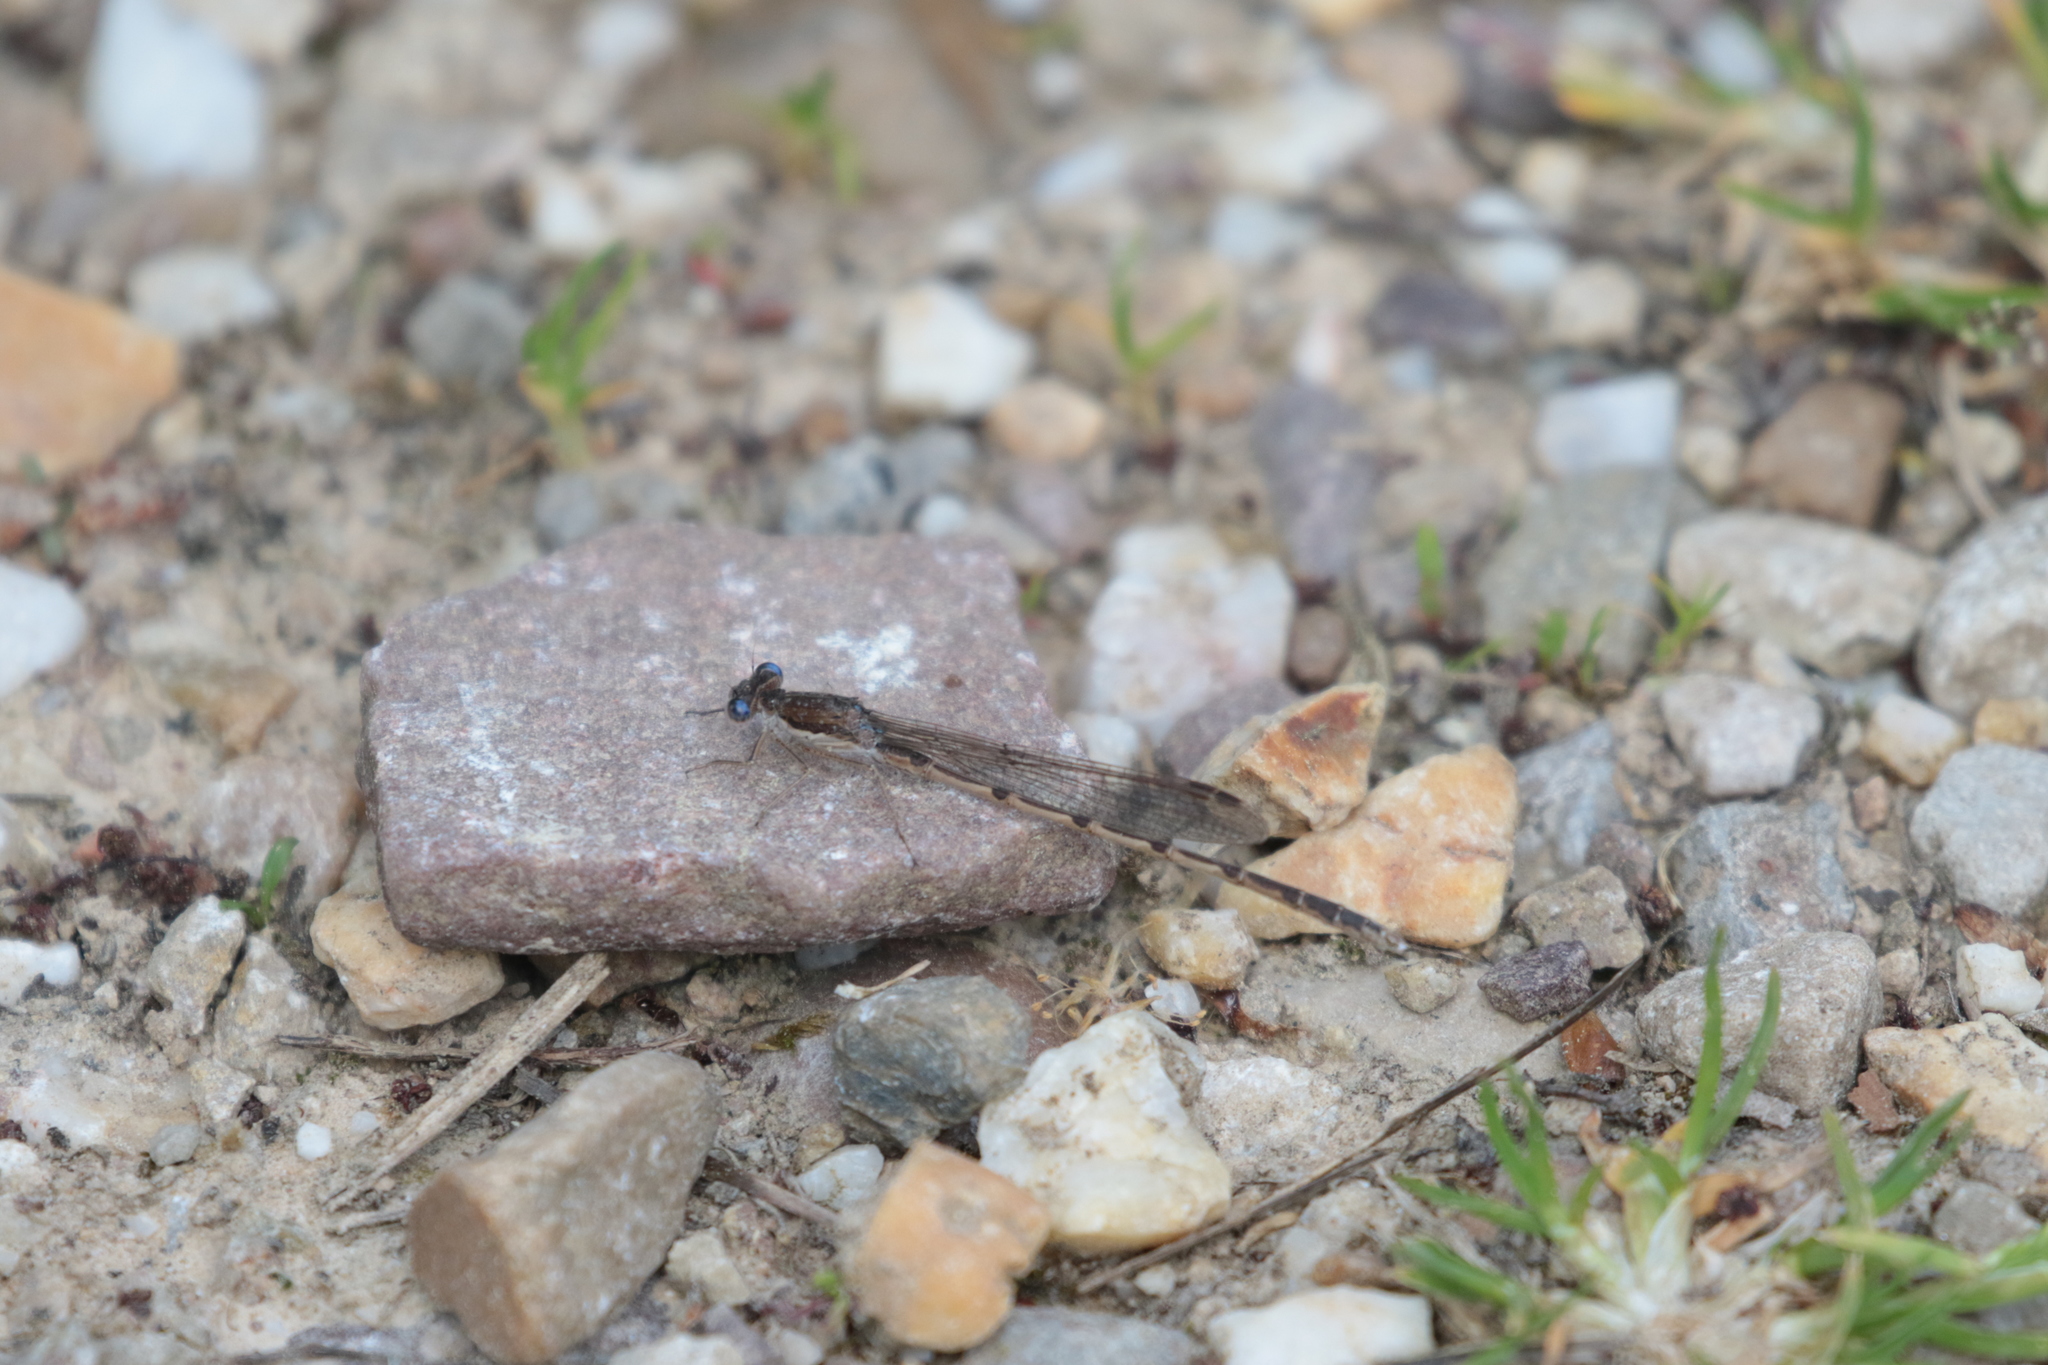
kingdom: Animalia
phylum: Arthropoda
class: Insecta
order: Odonata
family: Lestidae
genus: Sympecma
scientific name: Sympecma fusca
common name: Common winter damsel
